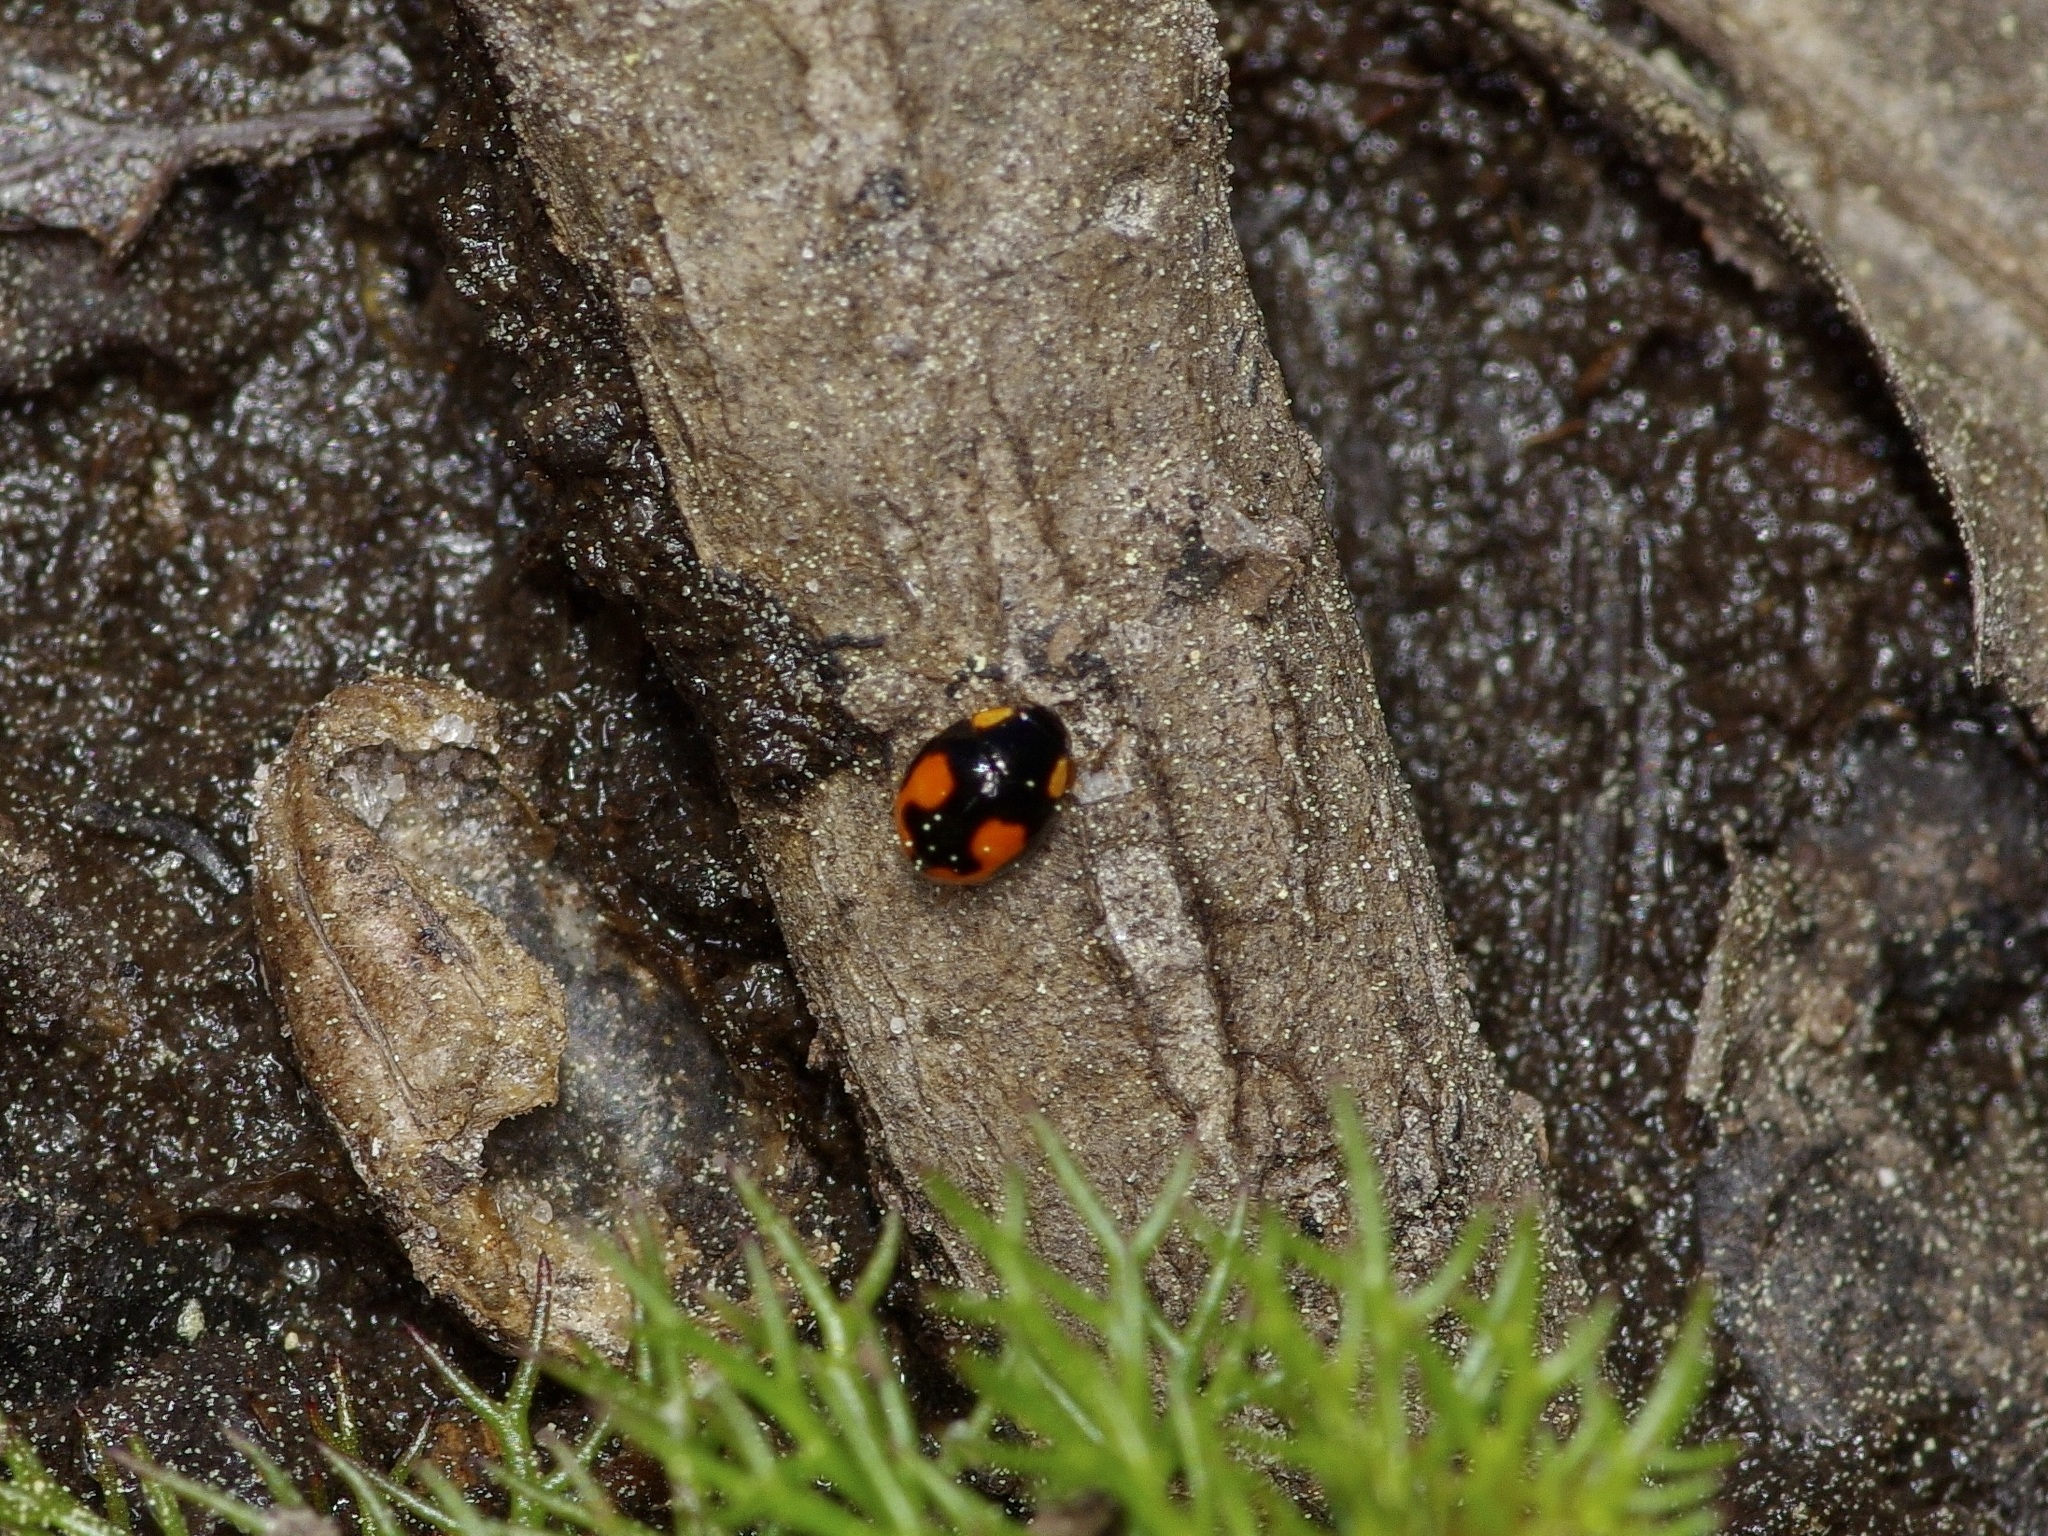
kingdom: Animalia
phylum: Arthropoda
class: Insecta
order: Coleoptera
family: Coccinellidae
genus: Hyperaspis
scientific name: Hyperaspis connectens
